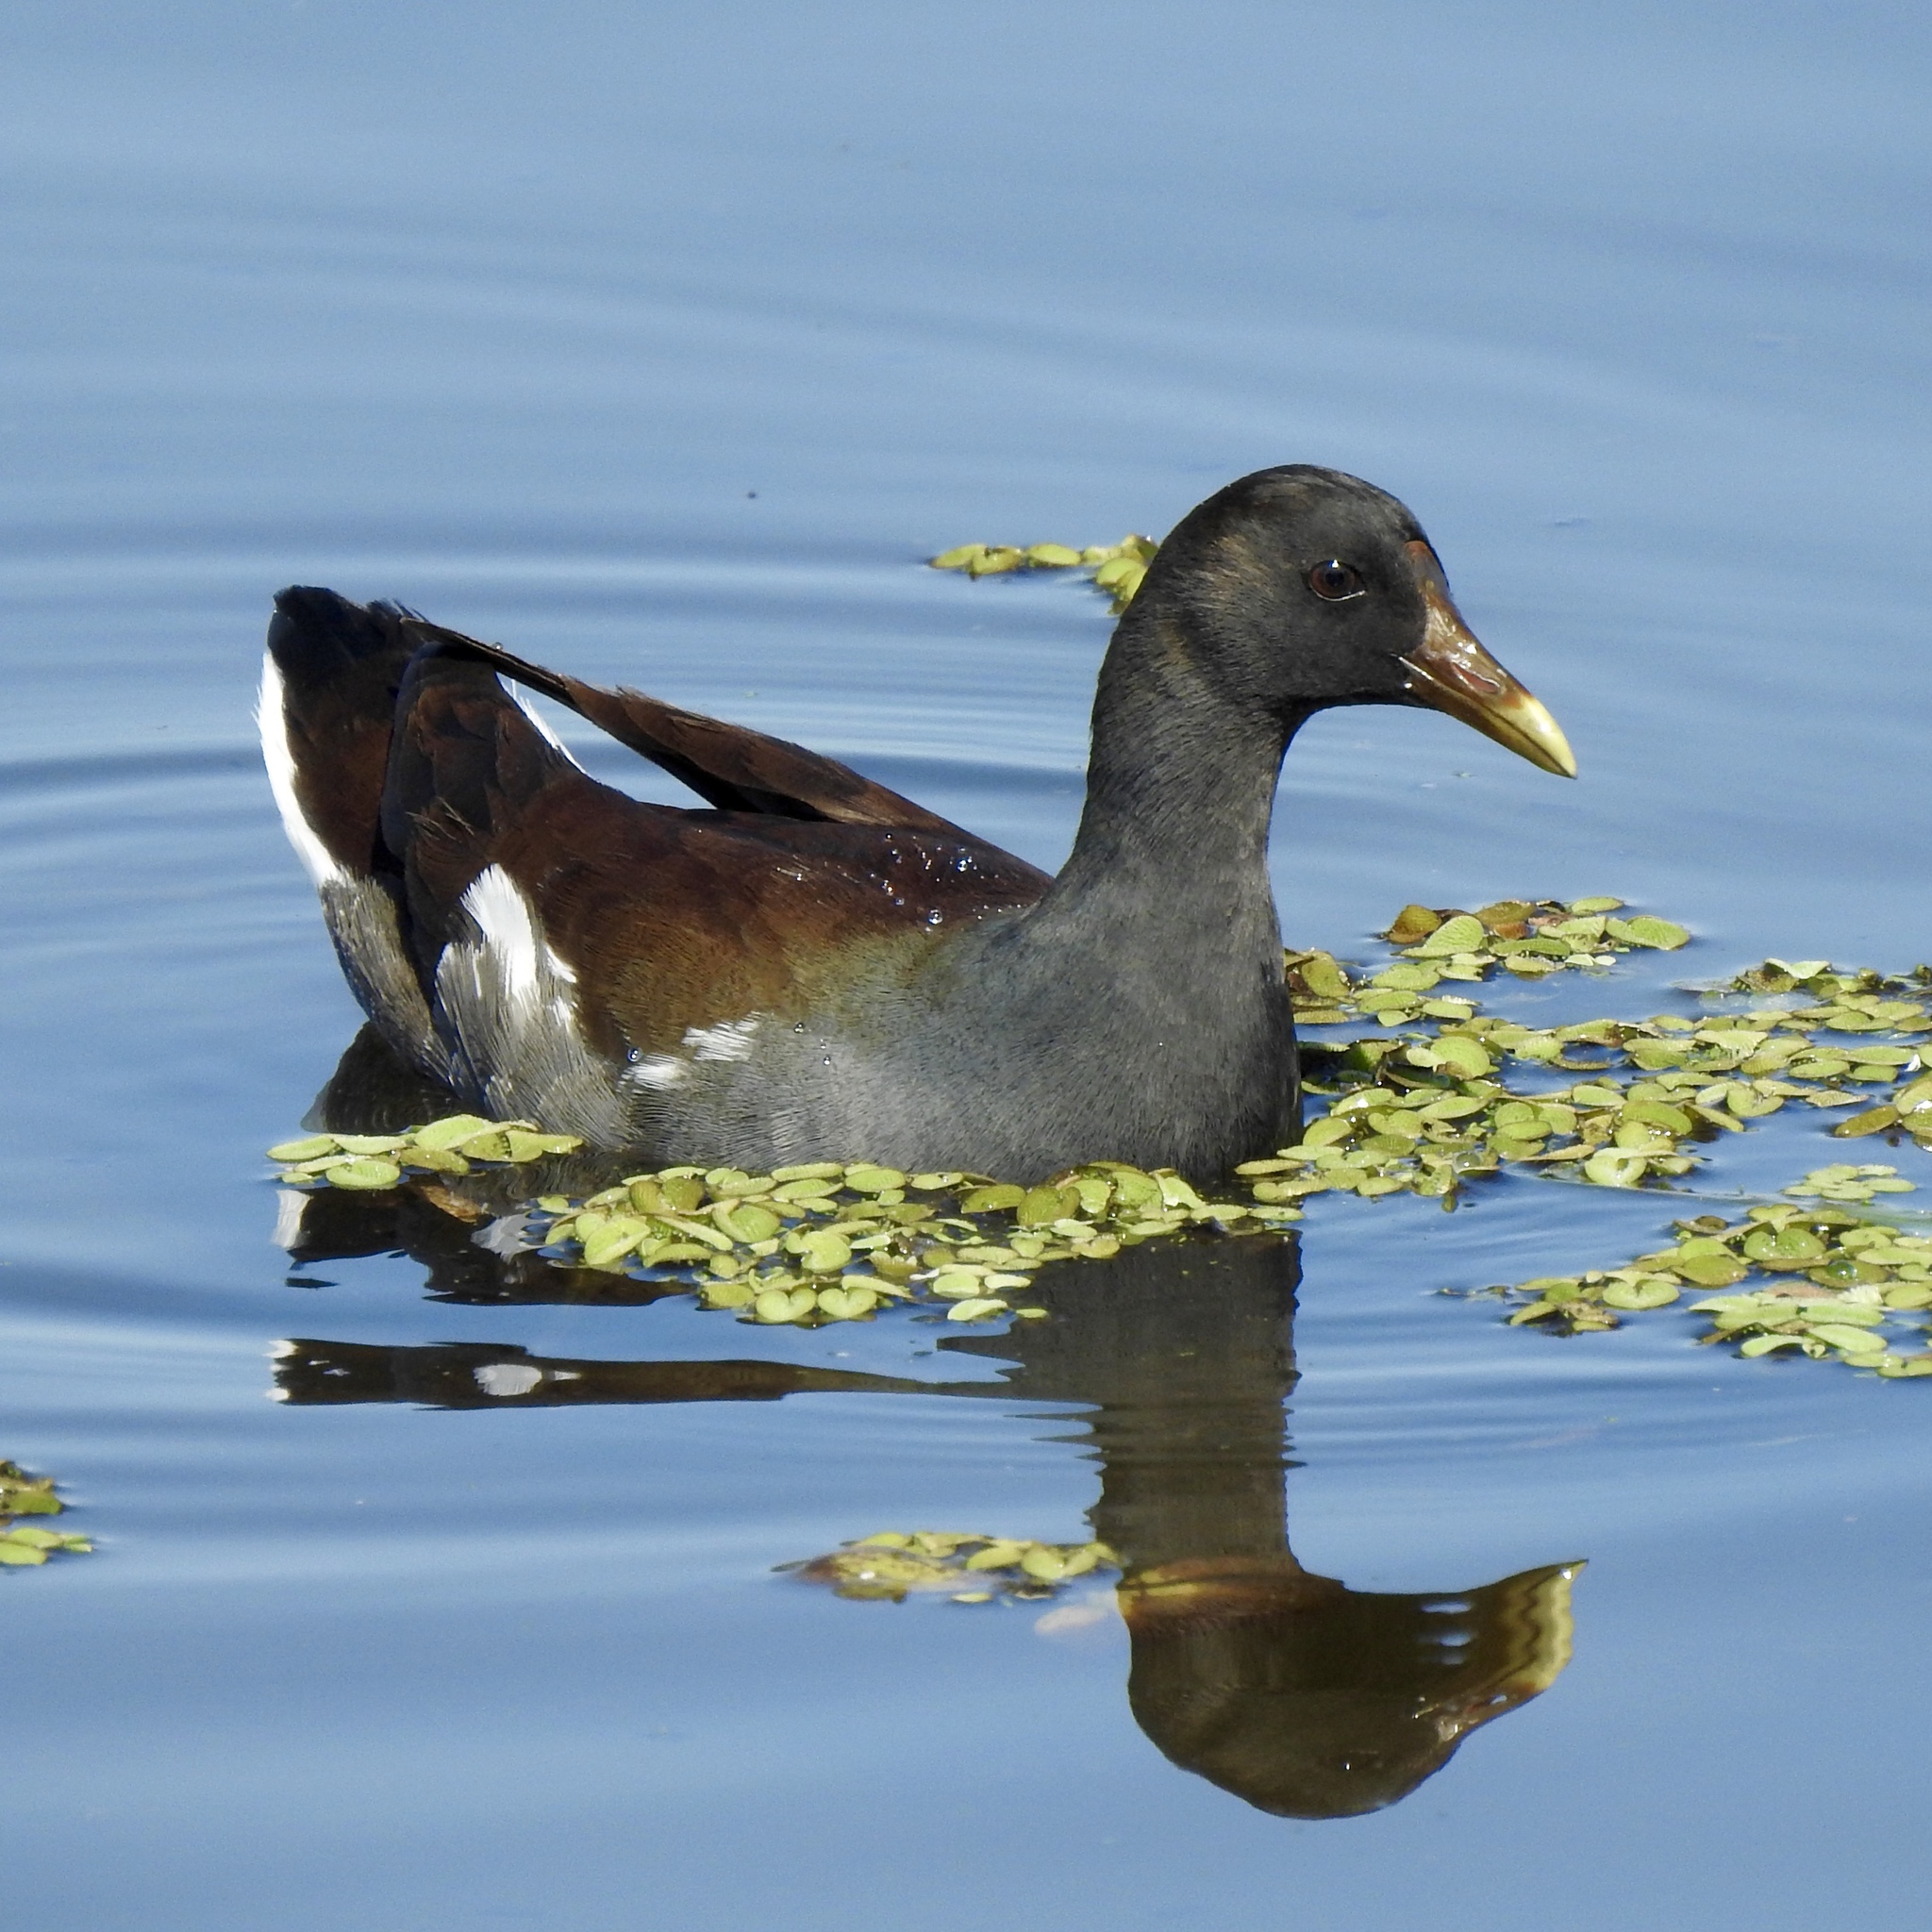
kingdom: Animalia
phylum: Chordata
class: Aves
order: Gruiformes
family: Rallidae
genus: Gallinula
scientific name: Gallinula chloropus
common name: Common moorhen
